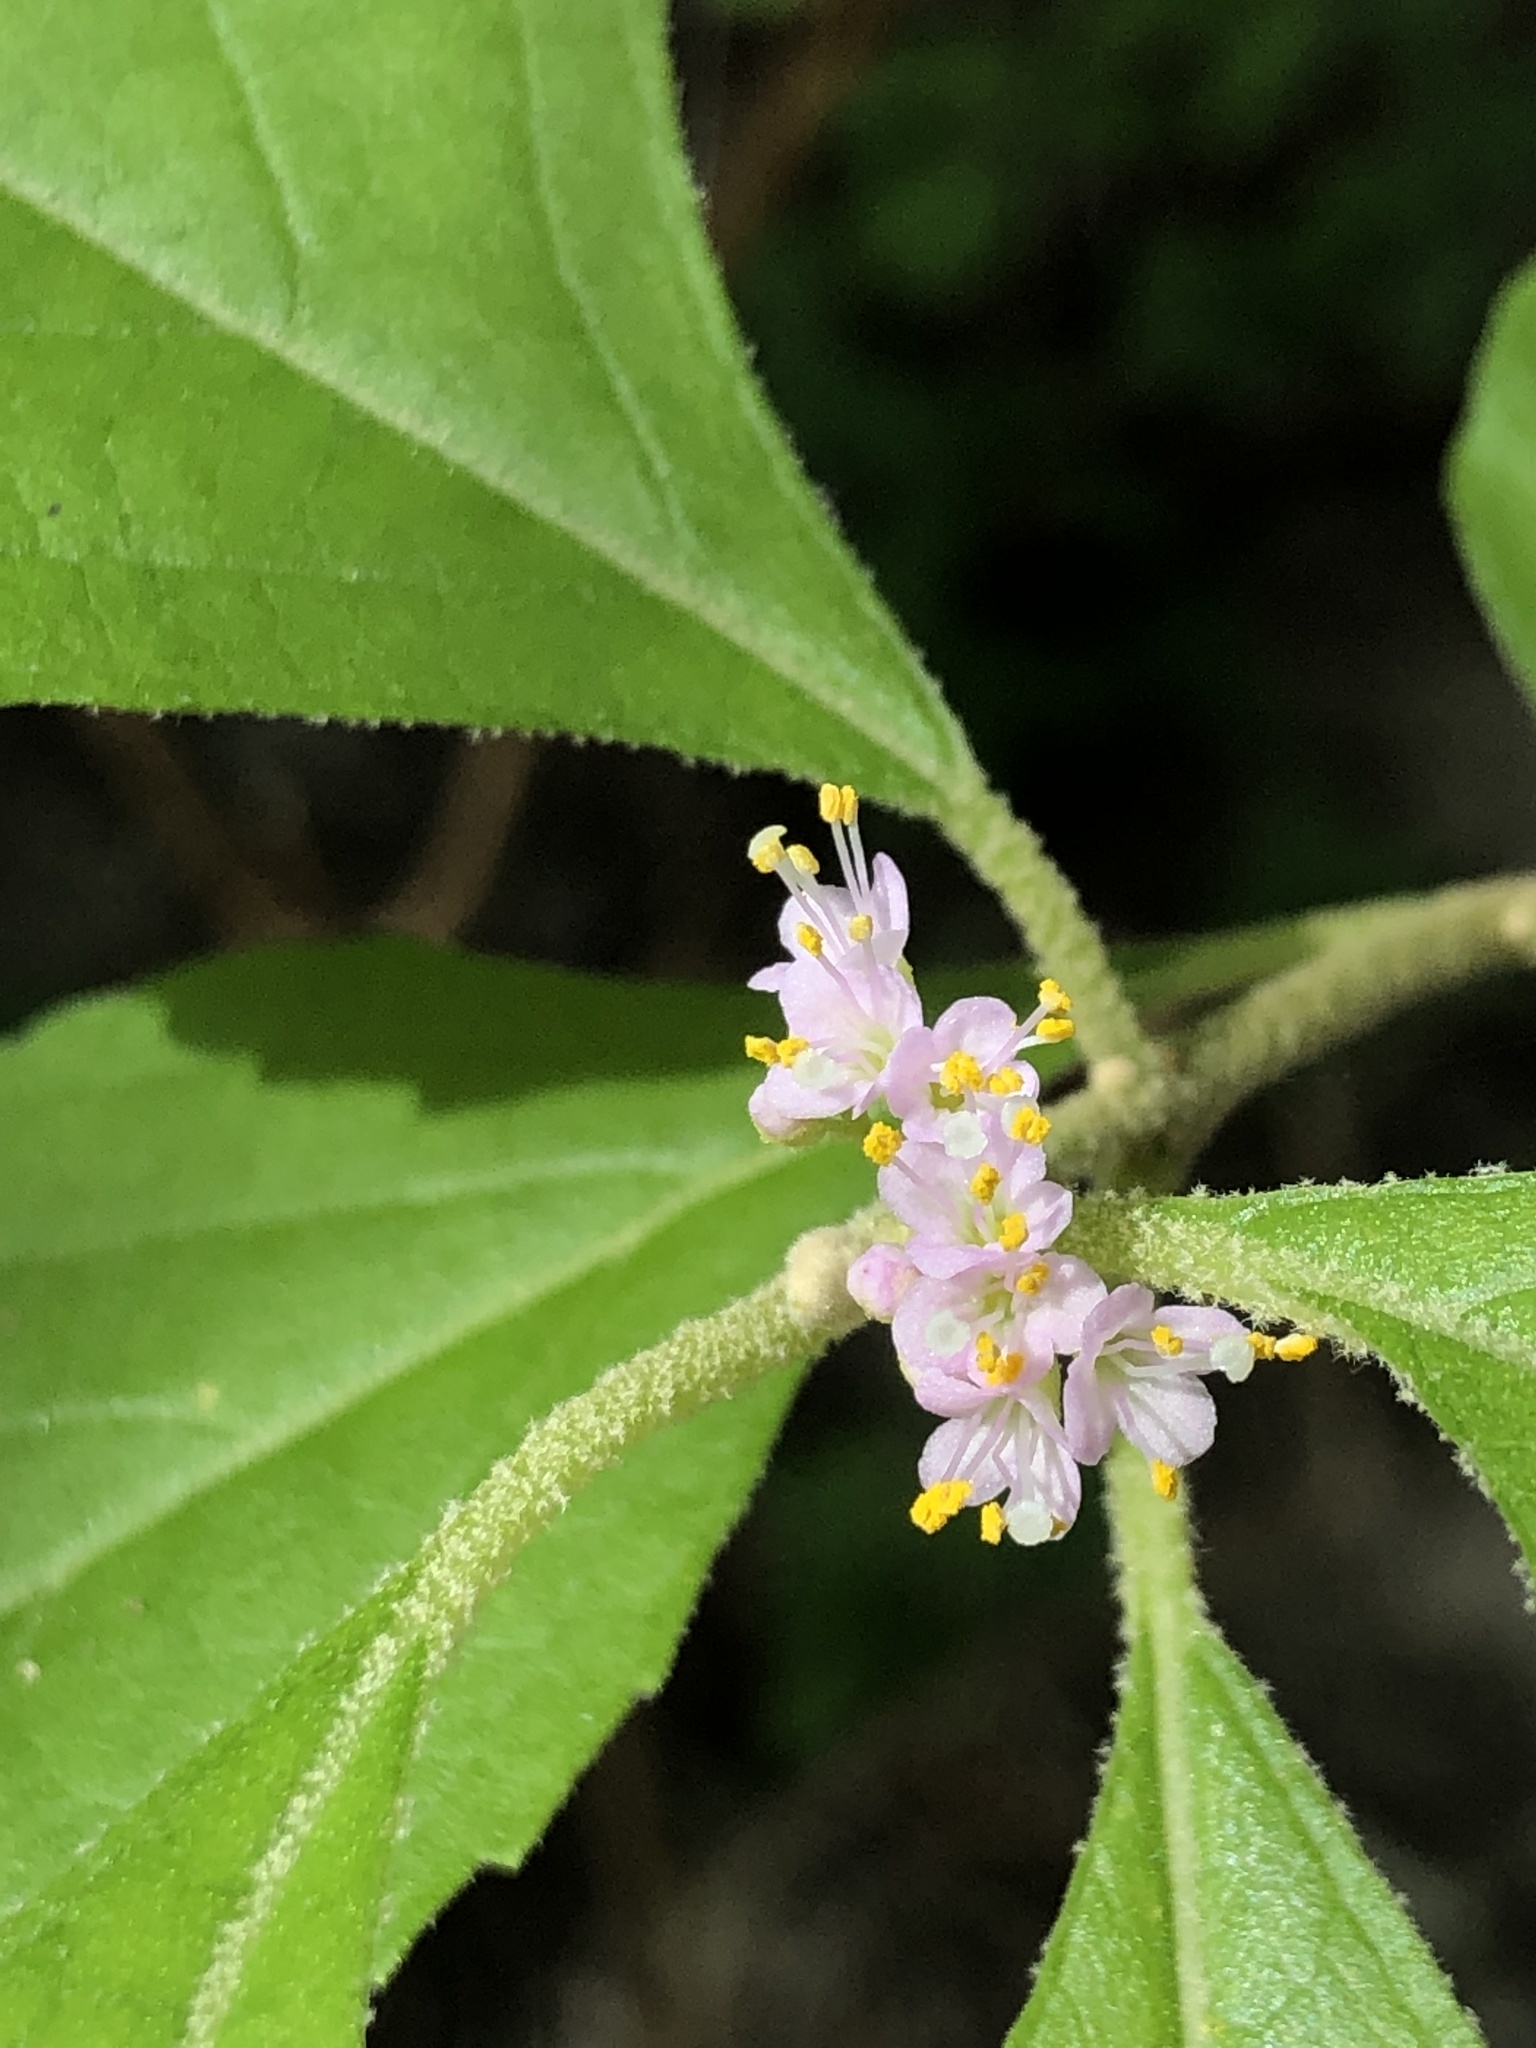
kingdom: Plantae
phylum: Tracheophyta
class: Magnoliopsida
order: Lamiales
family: Lamiaceae
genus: Callicarpa
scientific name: Callicarpa americana
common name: American beautyberry
